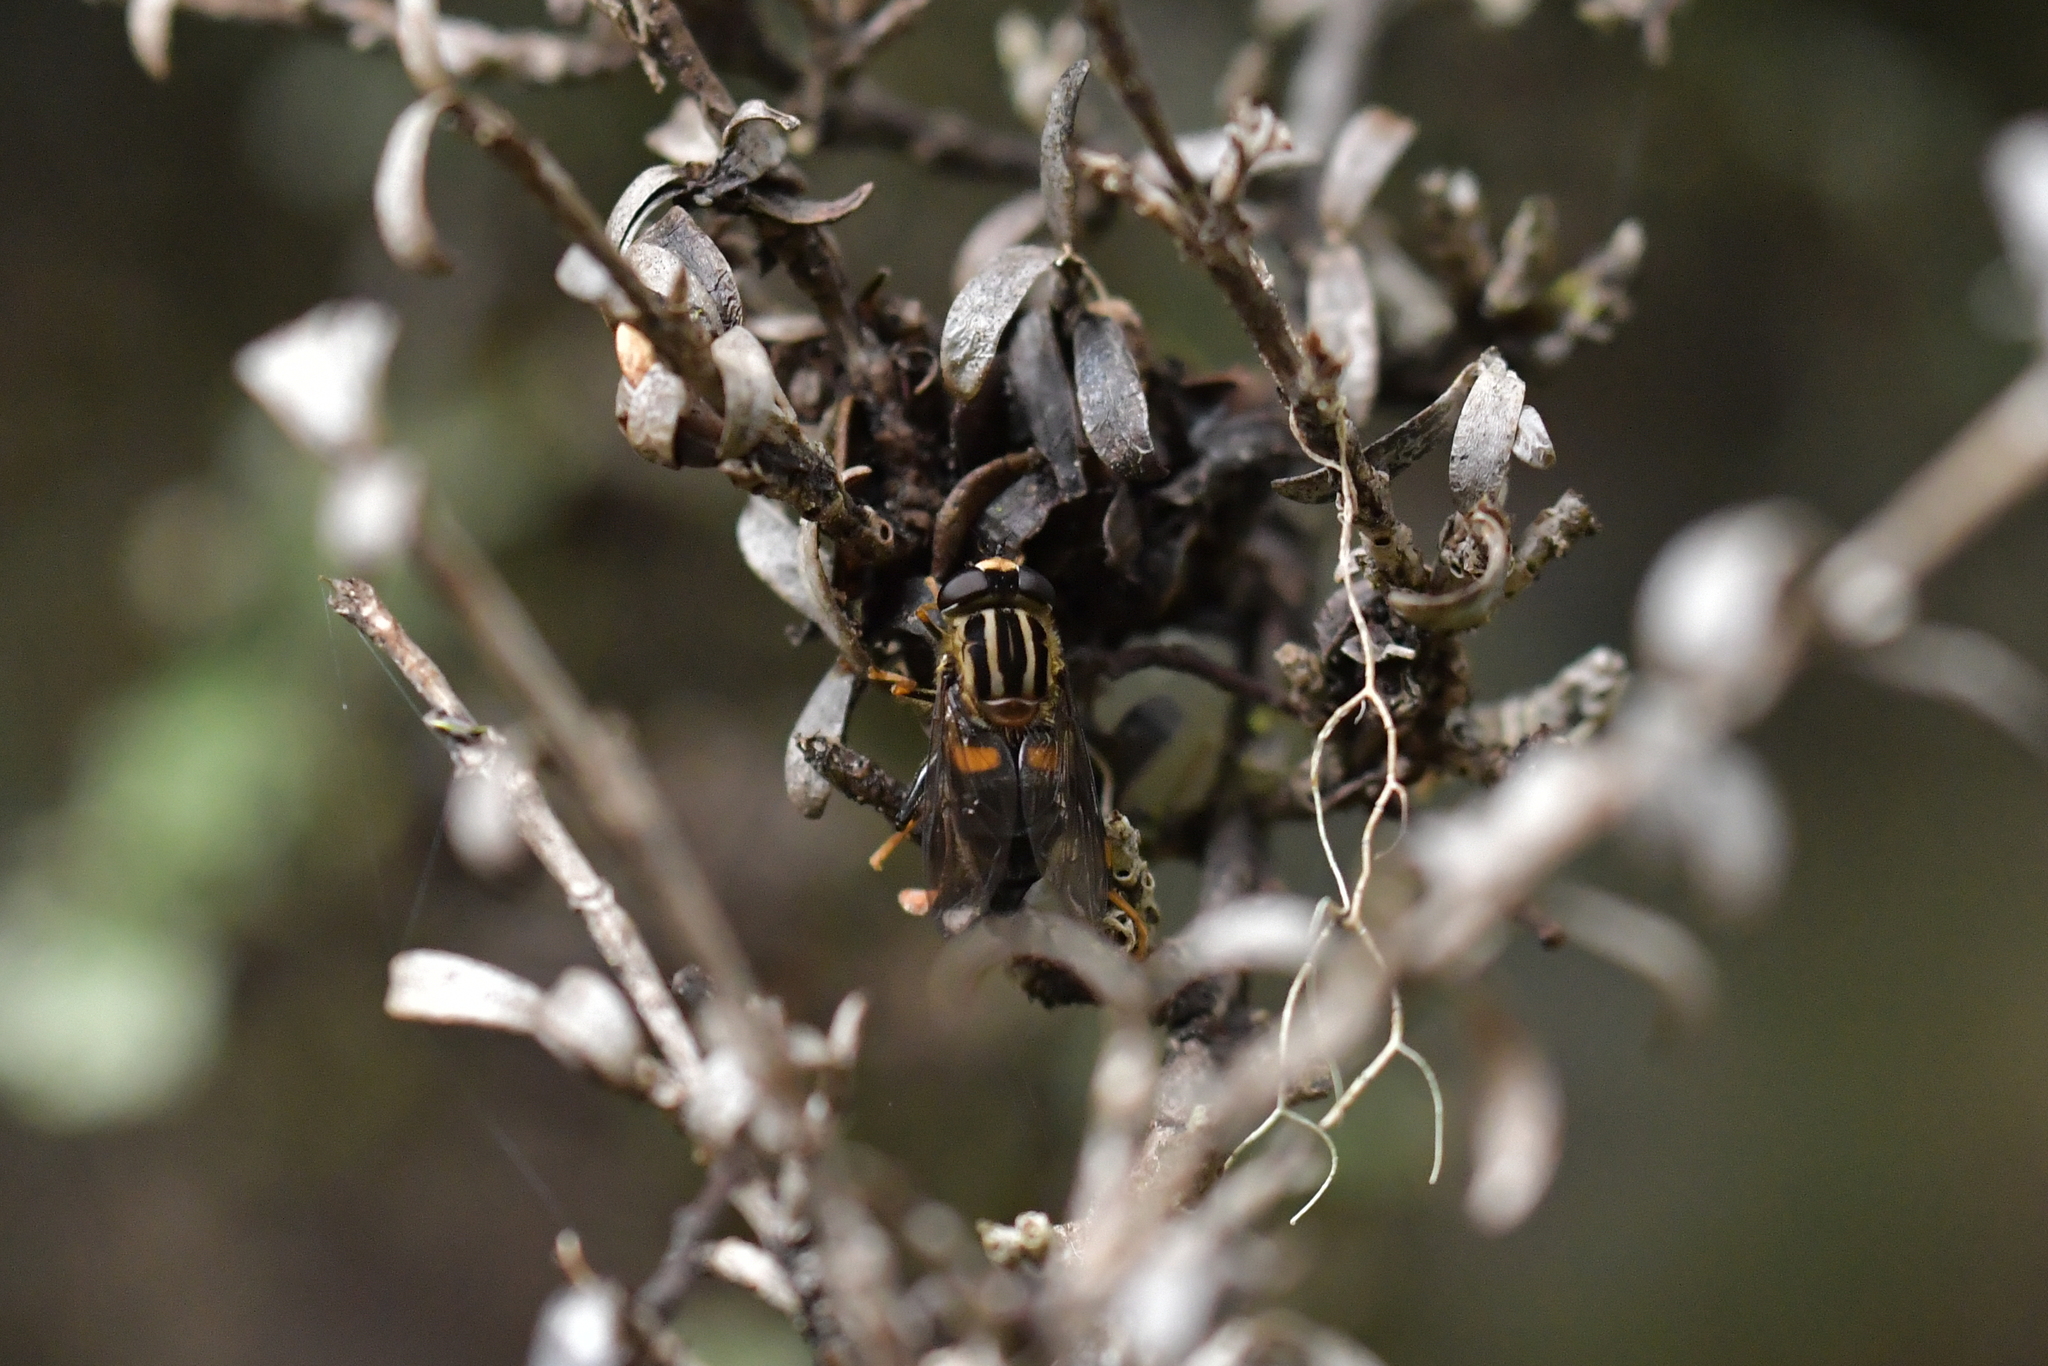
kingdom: Animalia
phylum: Arthropoda
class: Insecta
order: Diptera
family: Syrphidae
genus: Helophilus
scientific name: Helophilus antipodus
